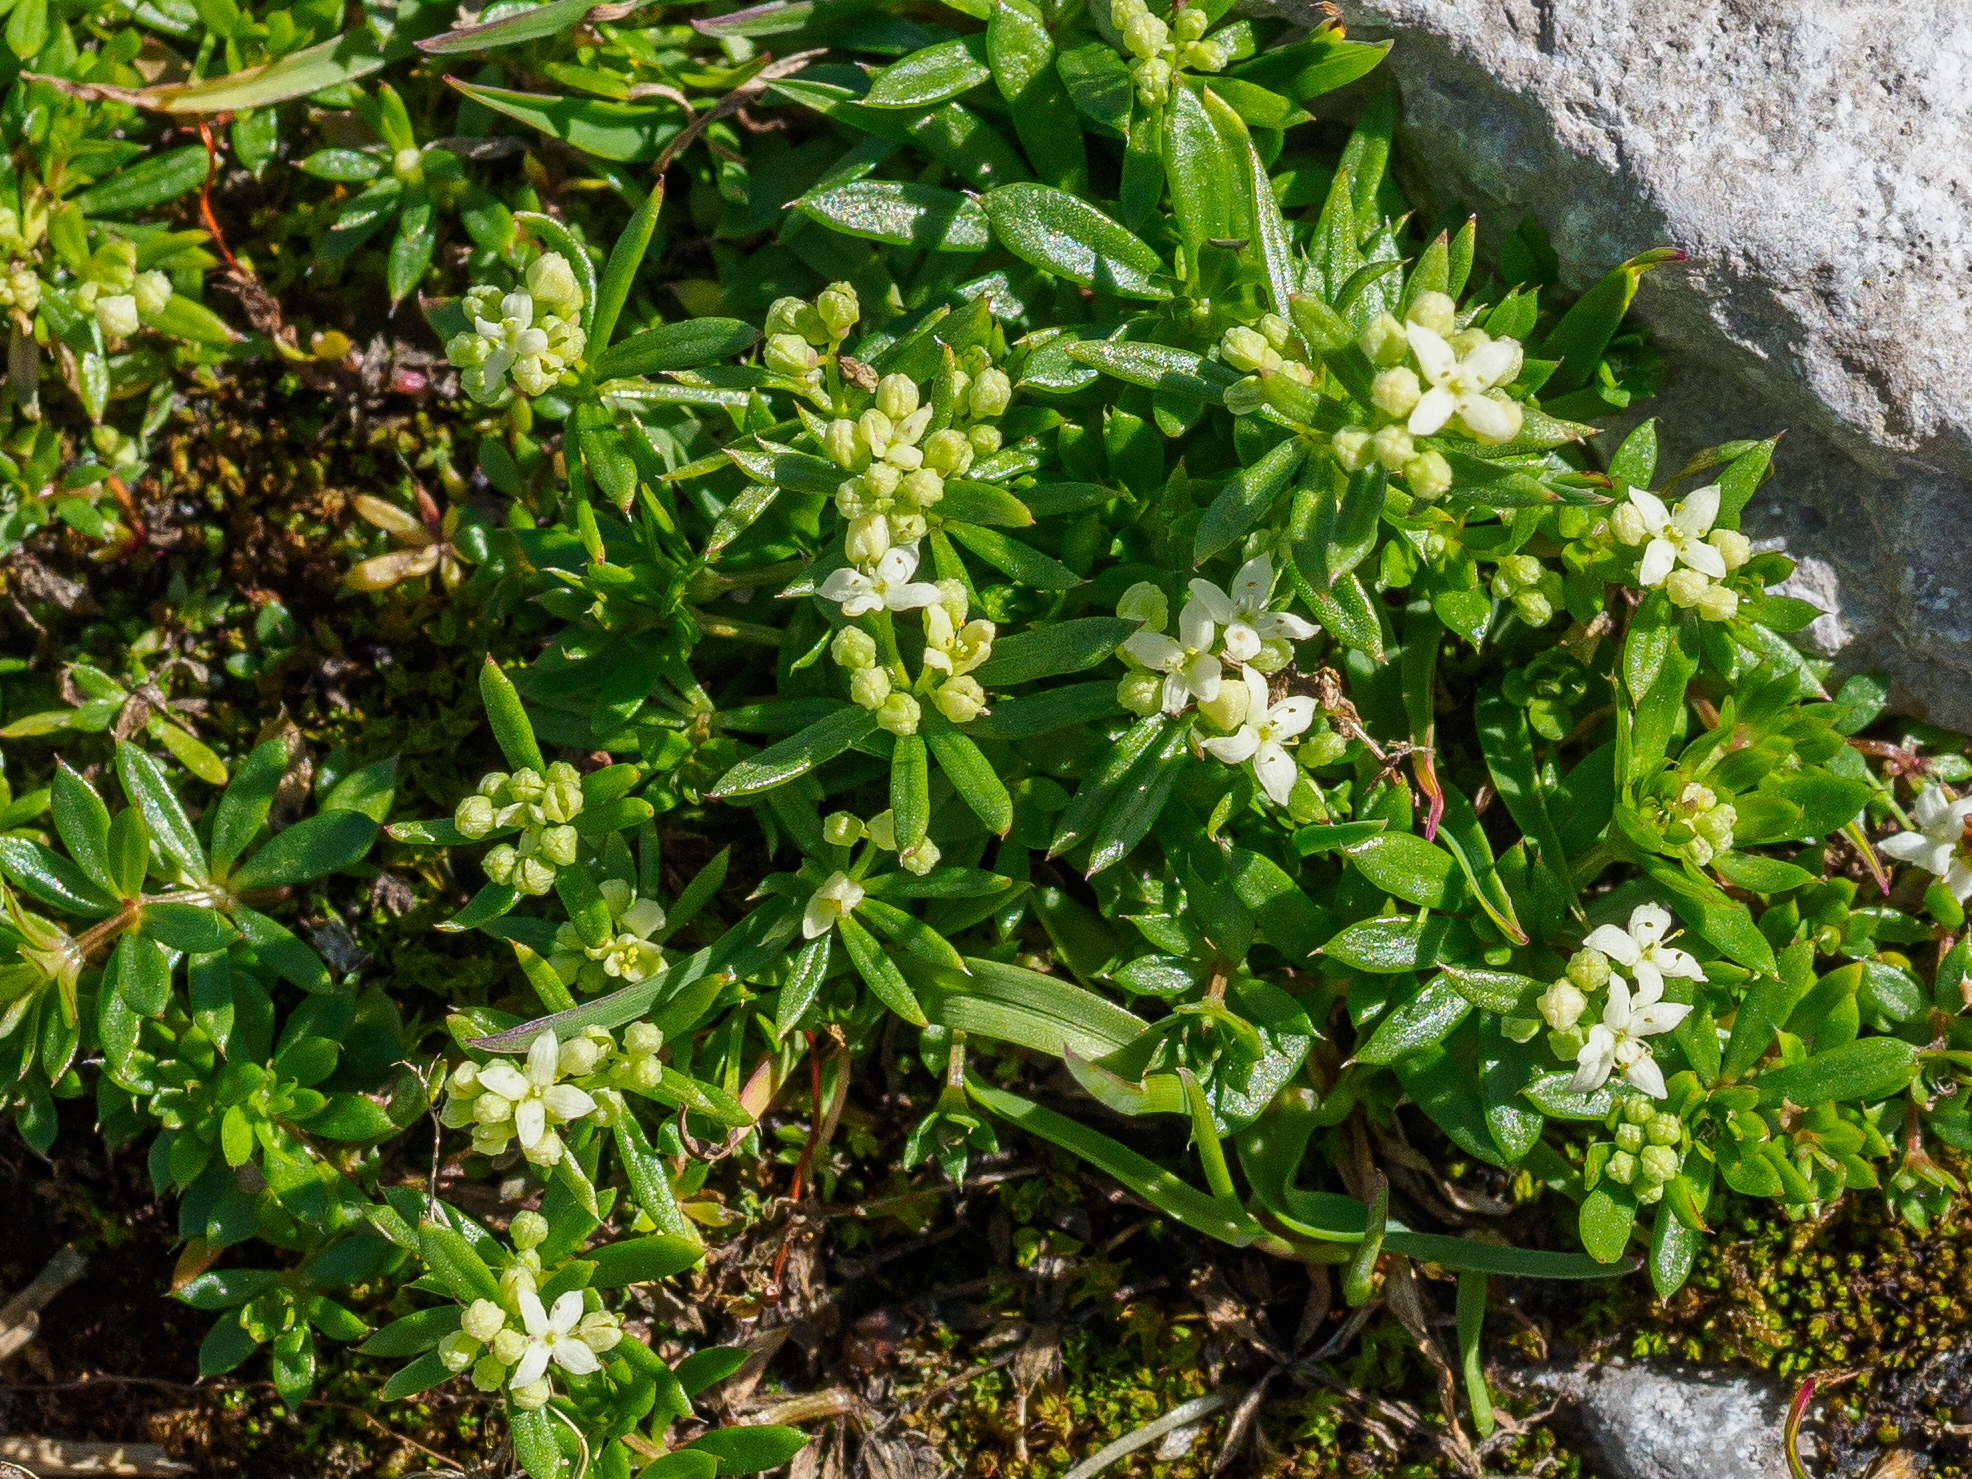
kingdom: Plantae
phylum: Tracheophyta
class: Magnoliopsida
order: Gentianales
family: Rubiaceae
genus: Galium
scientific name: Galium anisophyllon
